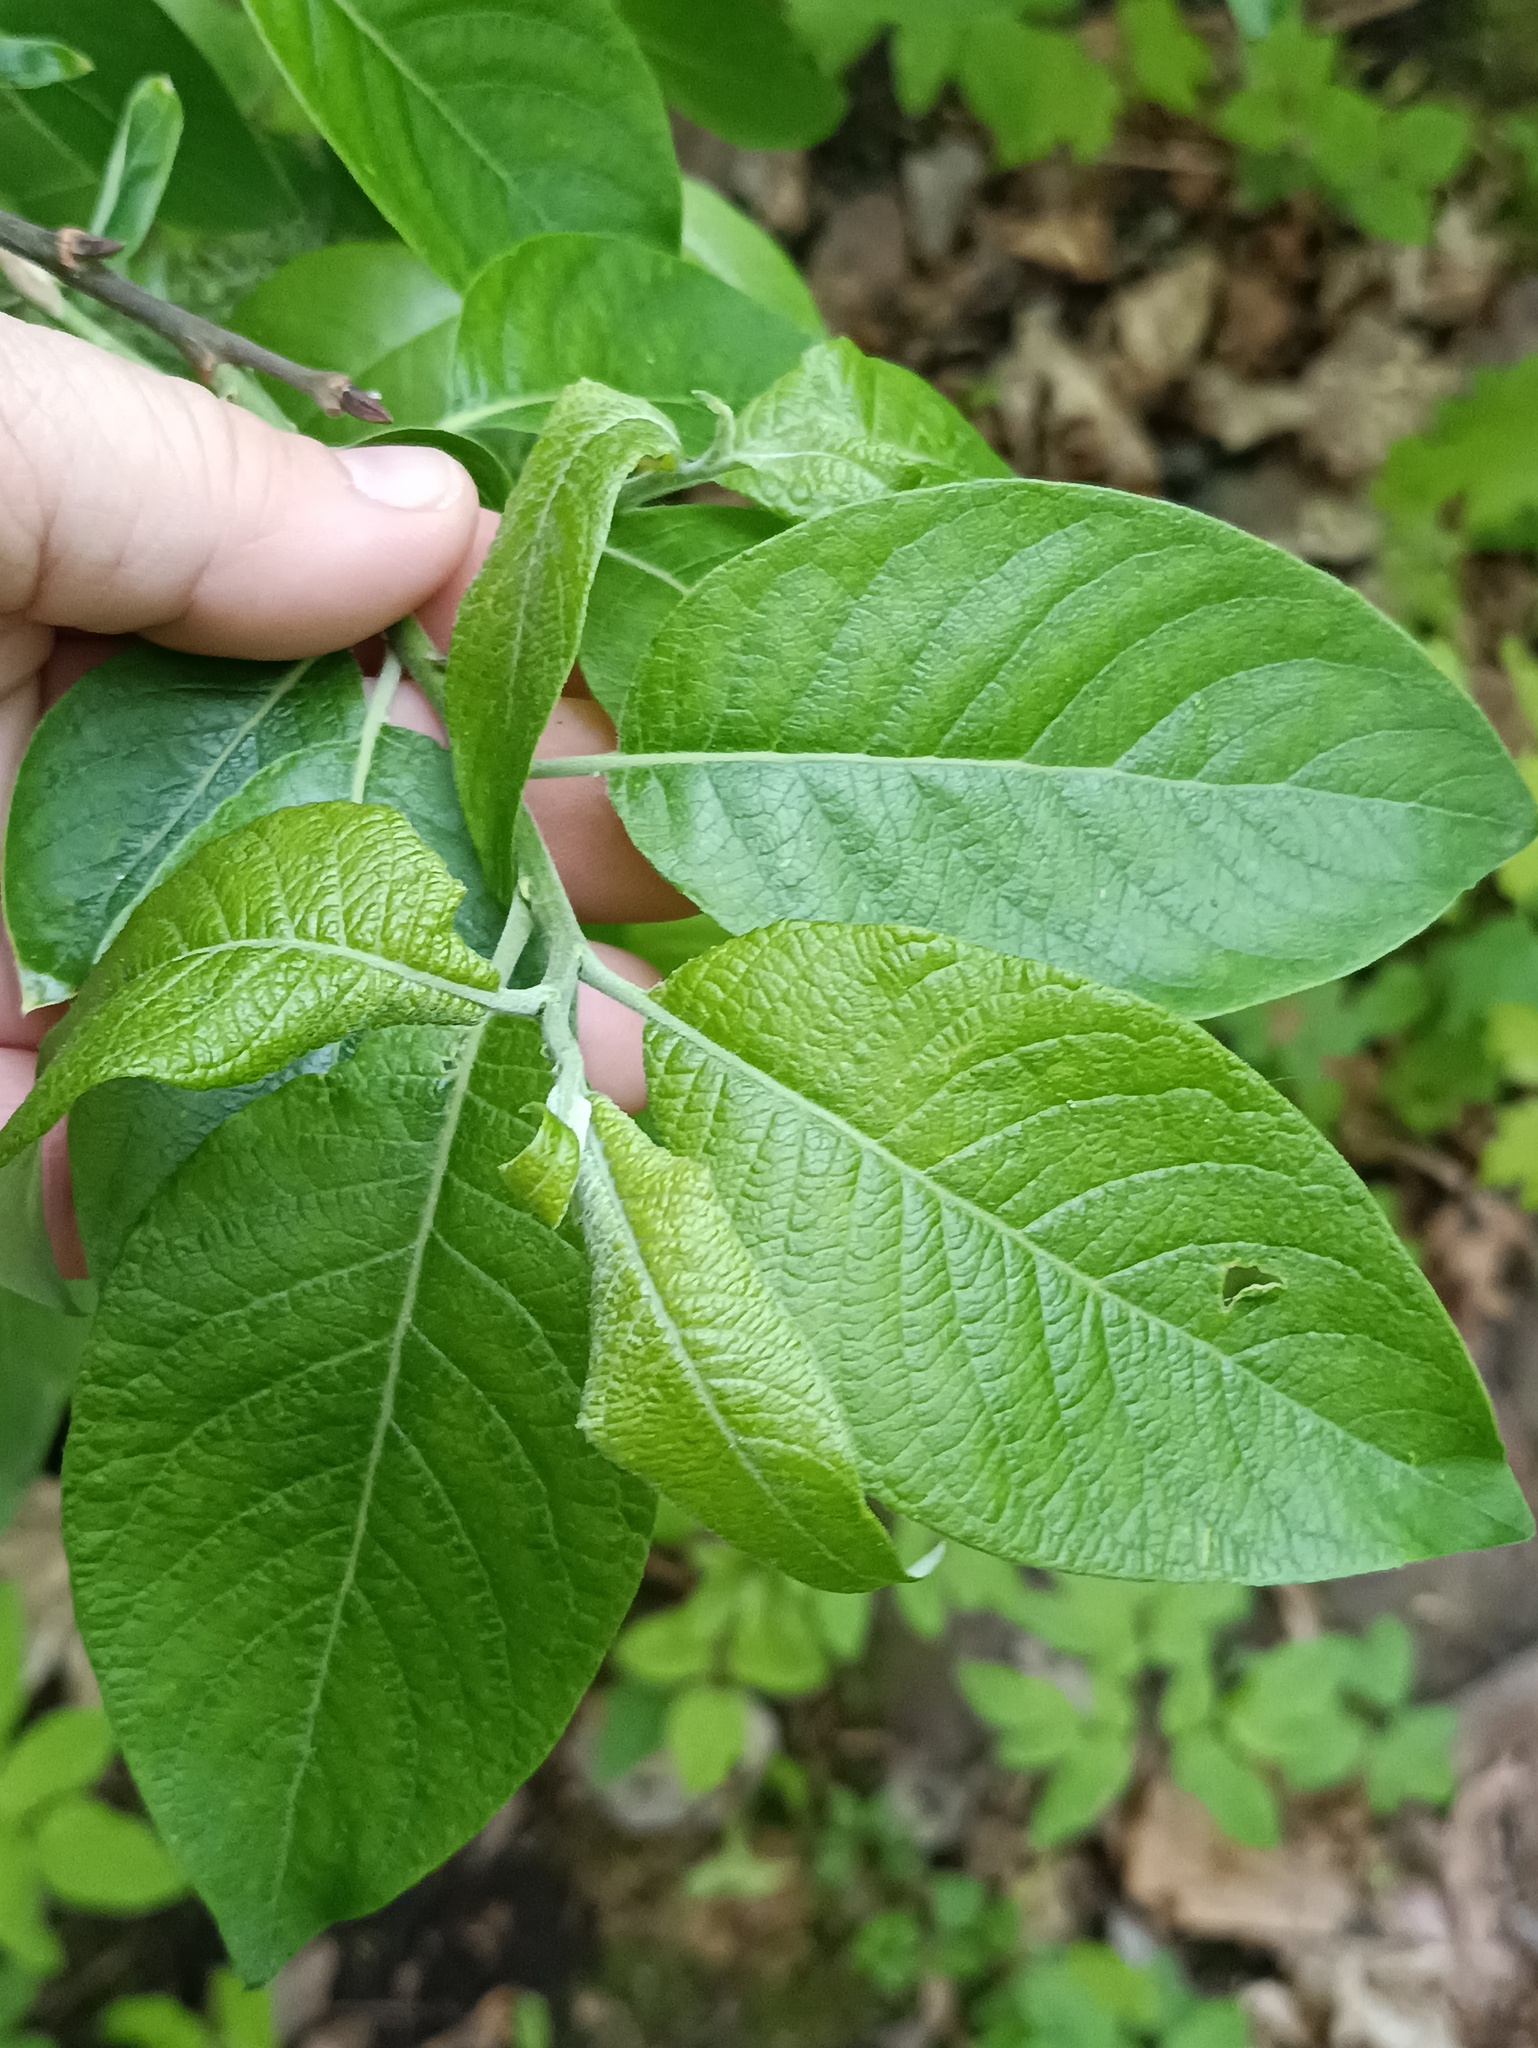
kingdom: Plantae
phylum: Tracheophyta
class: Magnoliopsida
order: Malpighiales
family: Salicaceae
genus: Salix
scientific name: Salix caprea
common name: Goat willow
